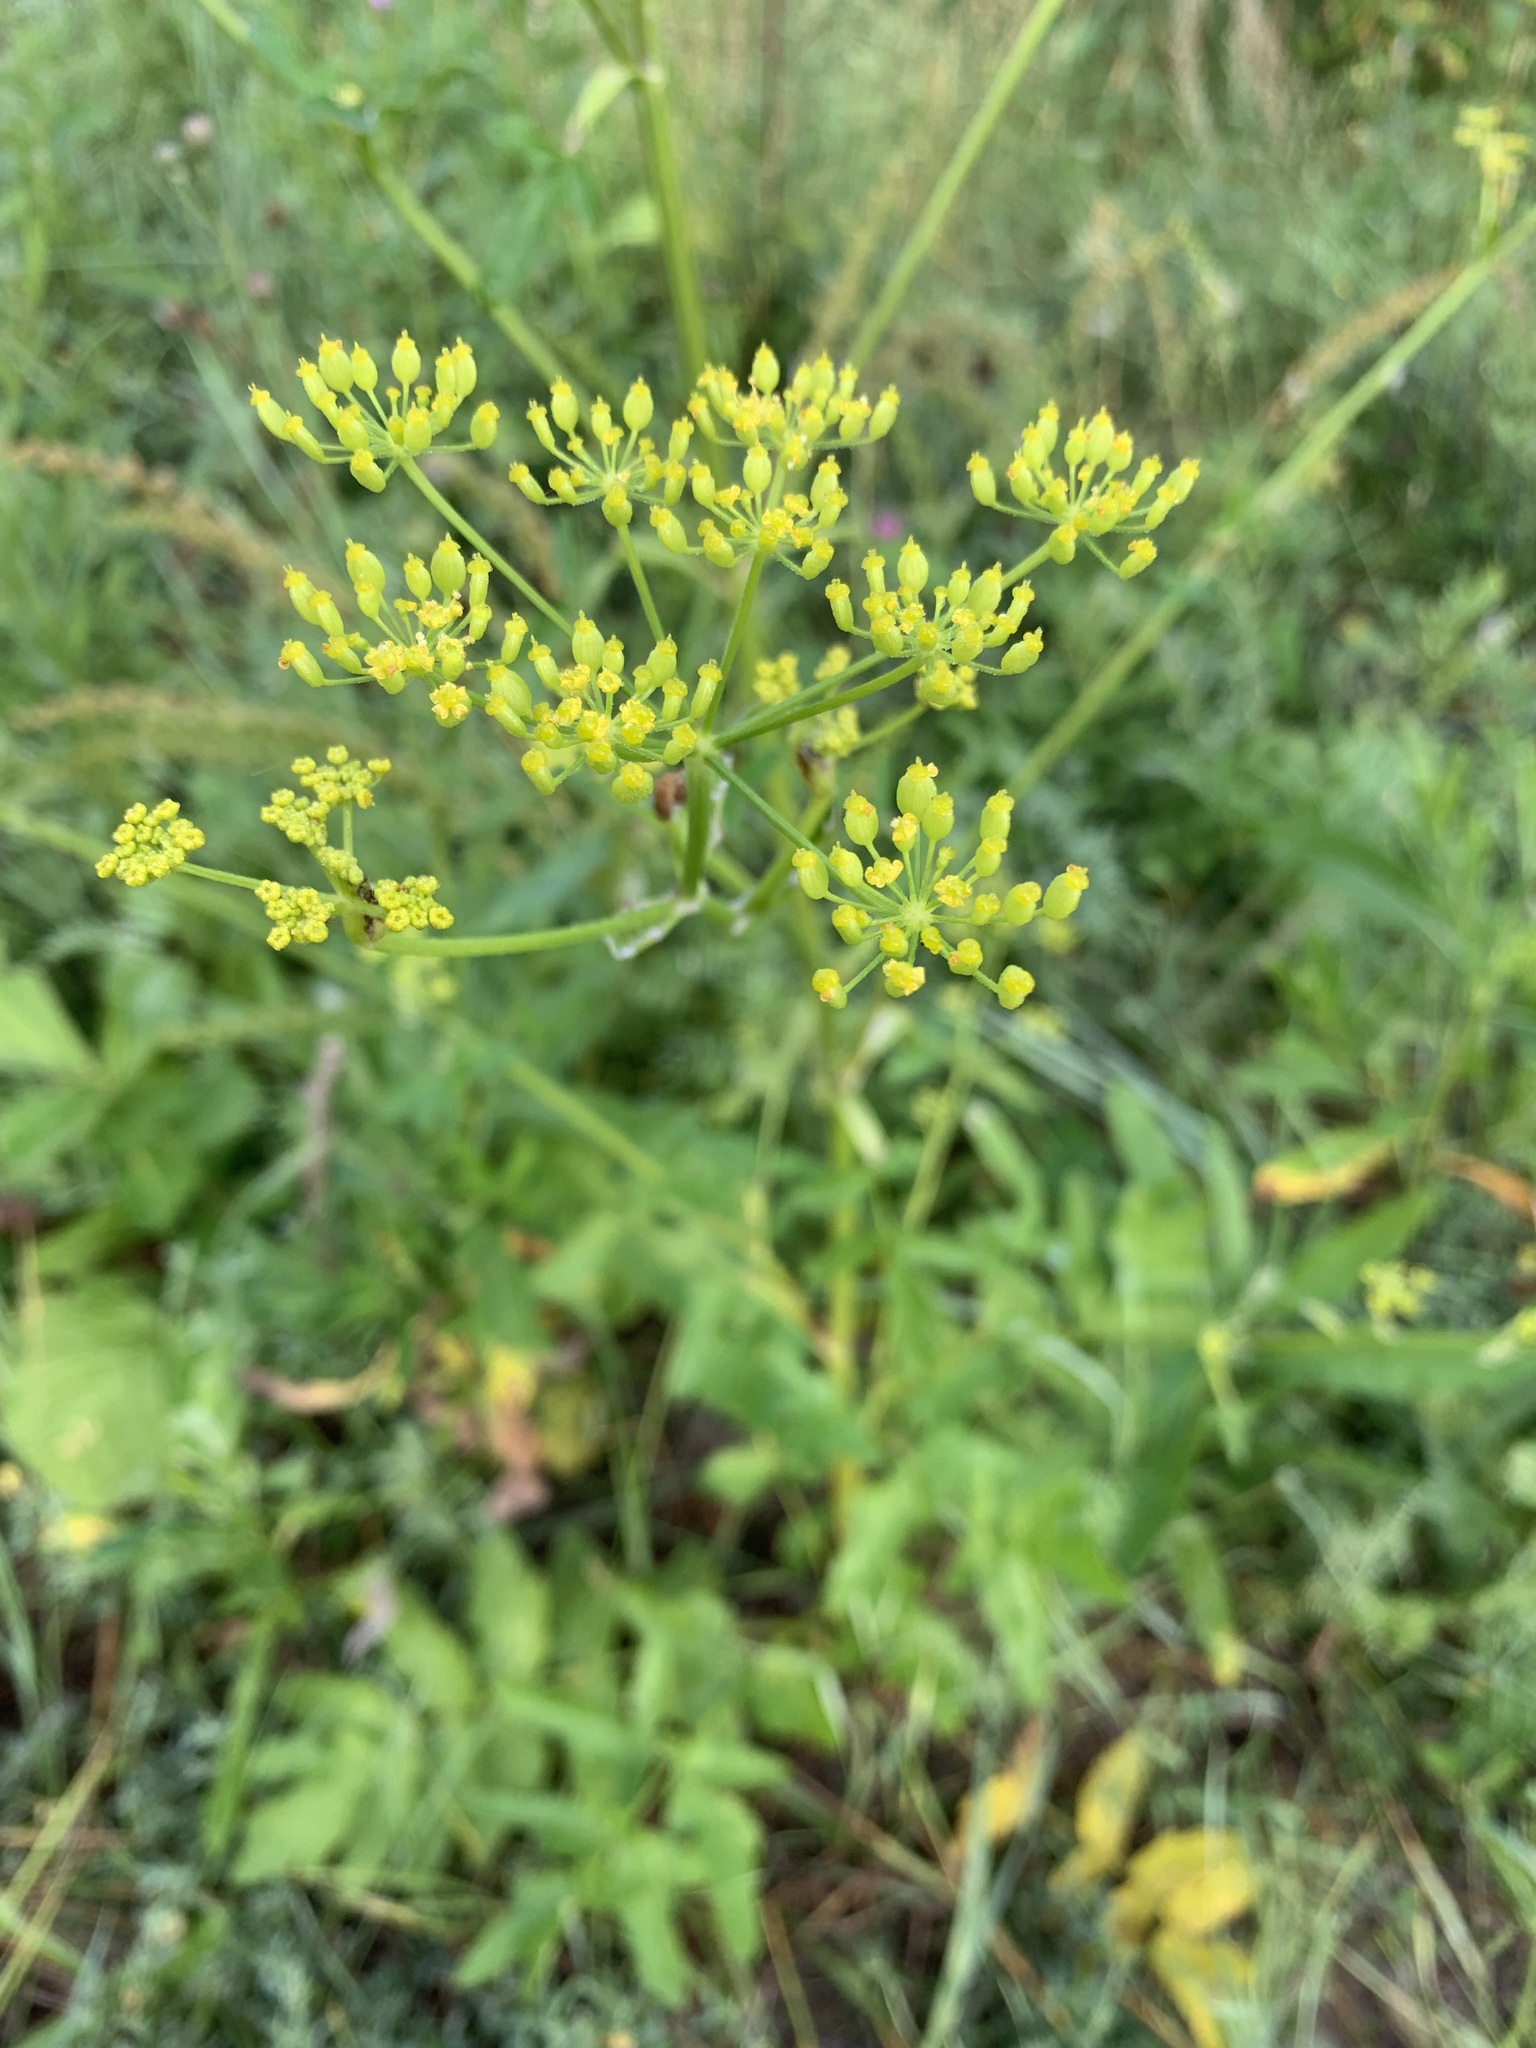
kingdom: Plantae
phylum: Tracheophyta
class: Magnoliopsida
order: Apiales
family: Apiaceae
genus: Pastinaca
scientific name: Pastinaca sativa
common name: Wild parsnip
